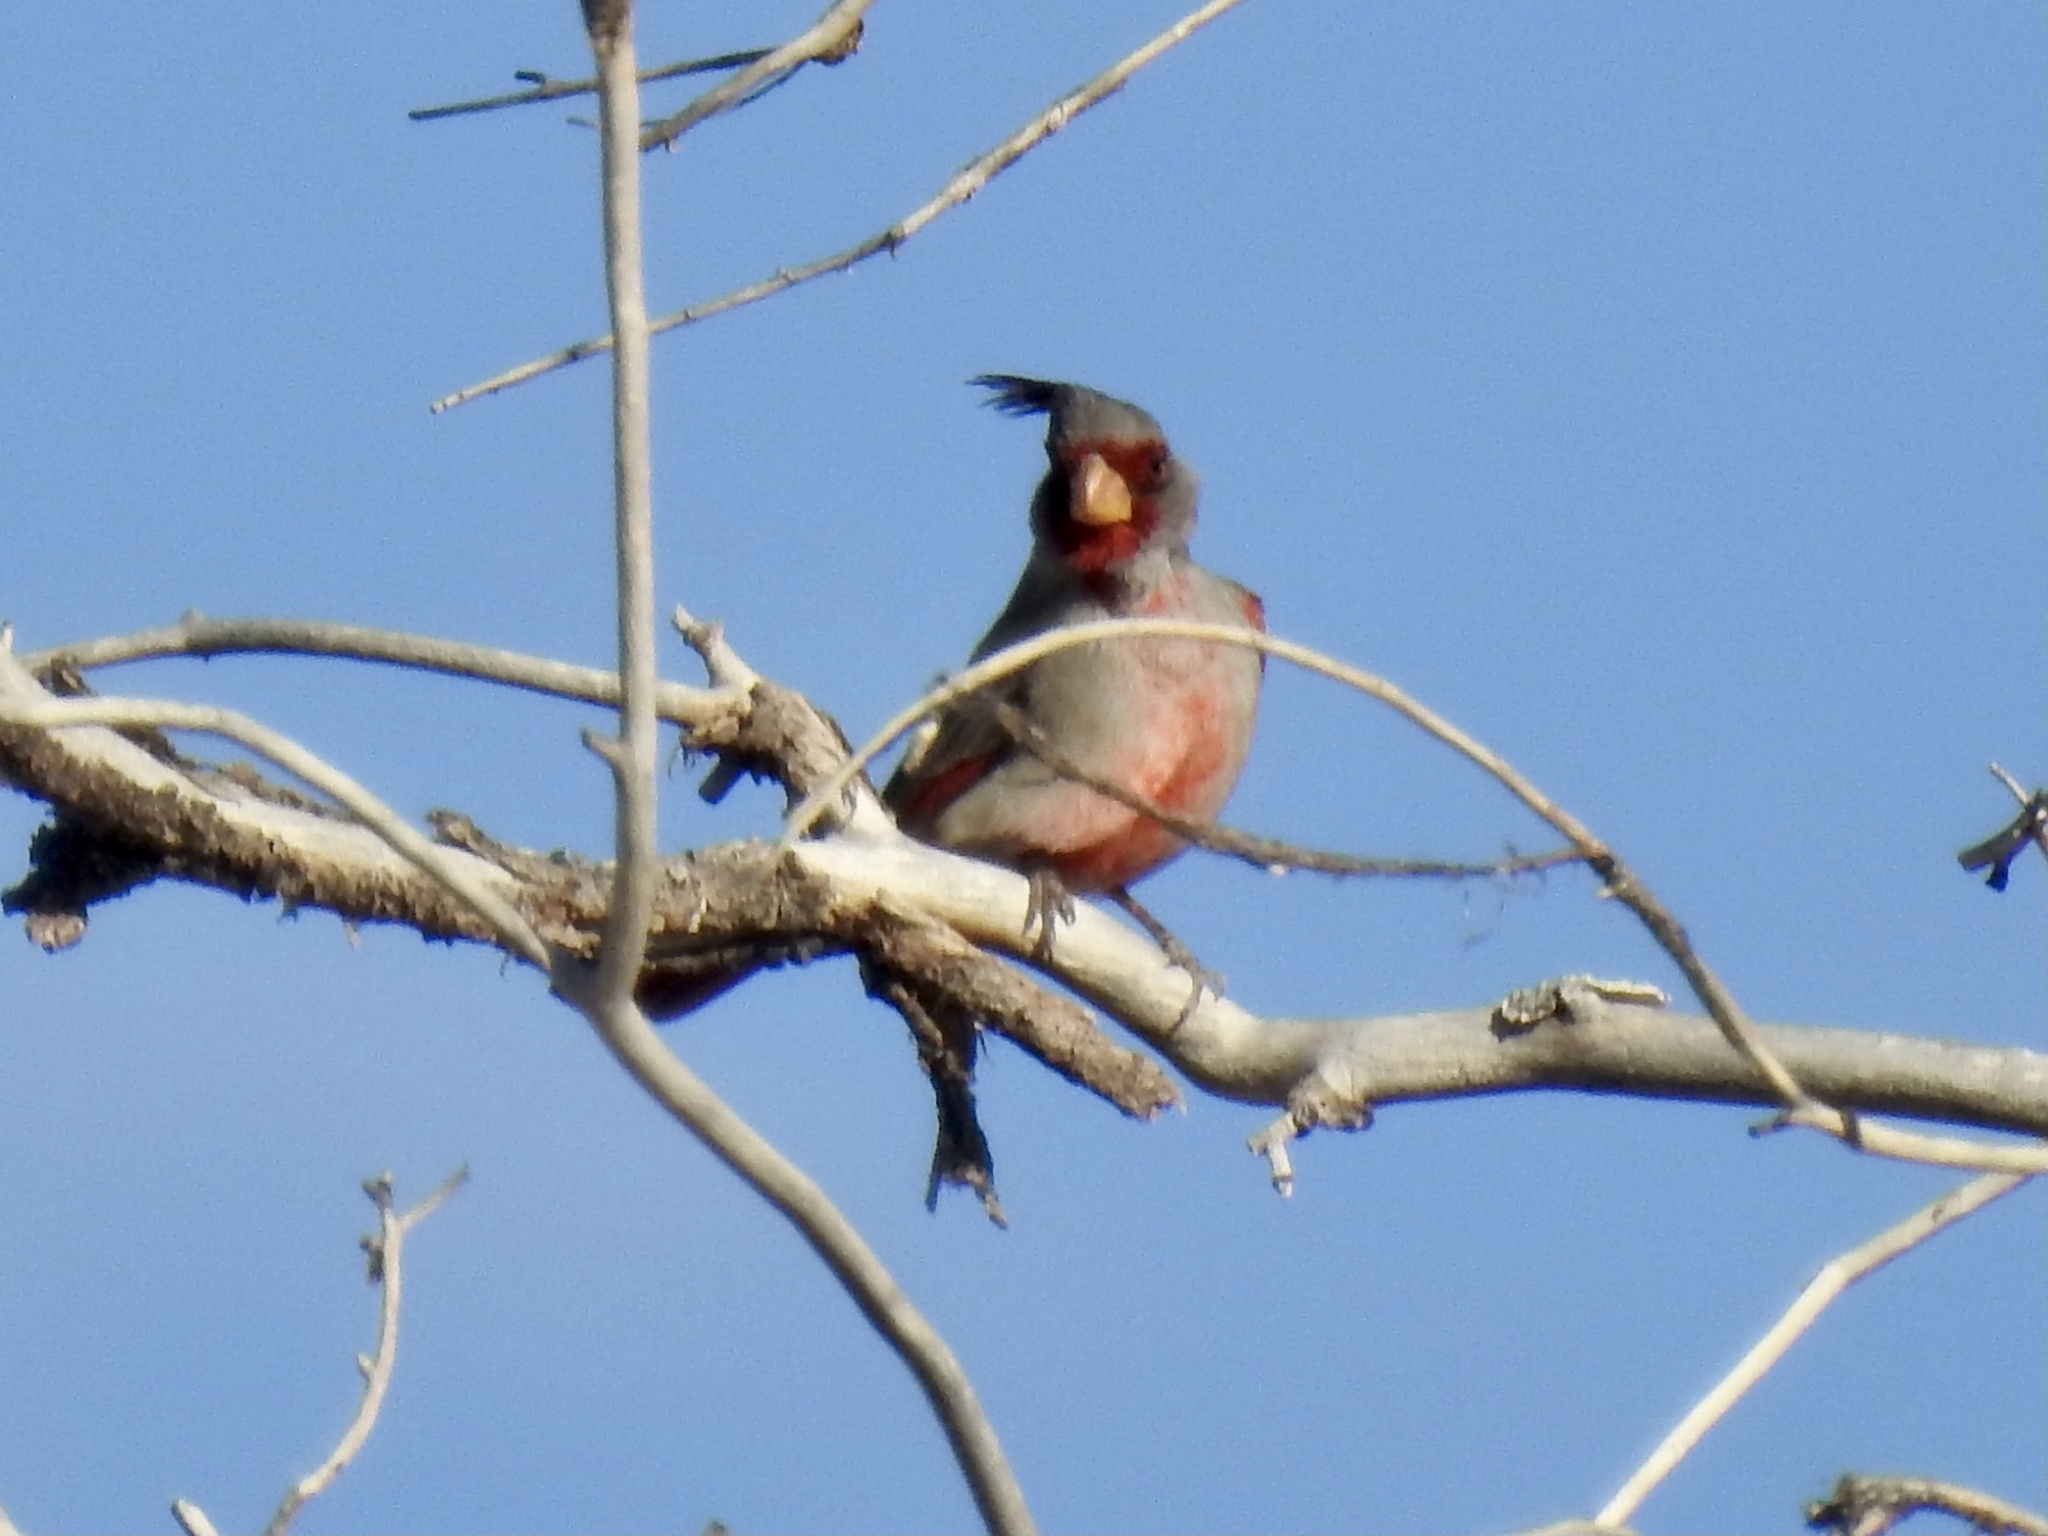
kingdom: Animalia
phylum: Chordata
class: Aves
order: Passeriformes
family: Cardinalidae
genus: Cardinalis
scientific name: Cardinalis sinuatus
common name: Pyrrhuloxia
